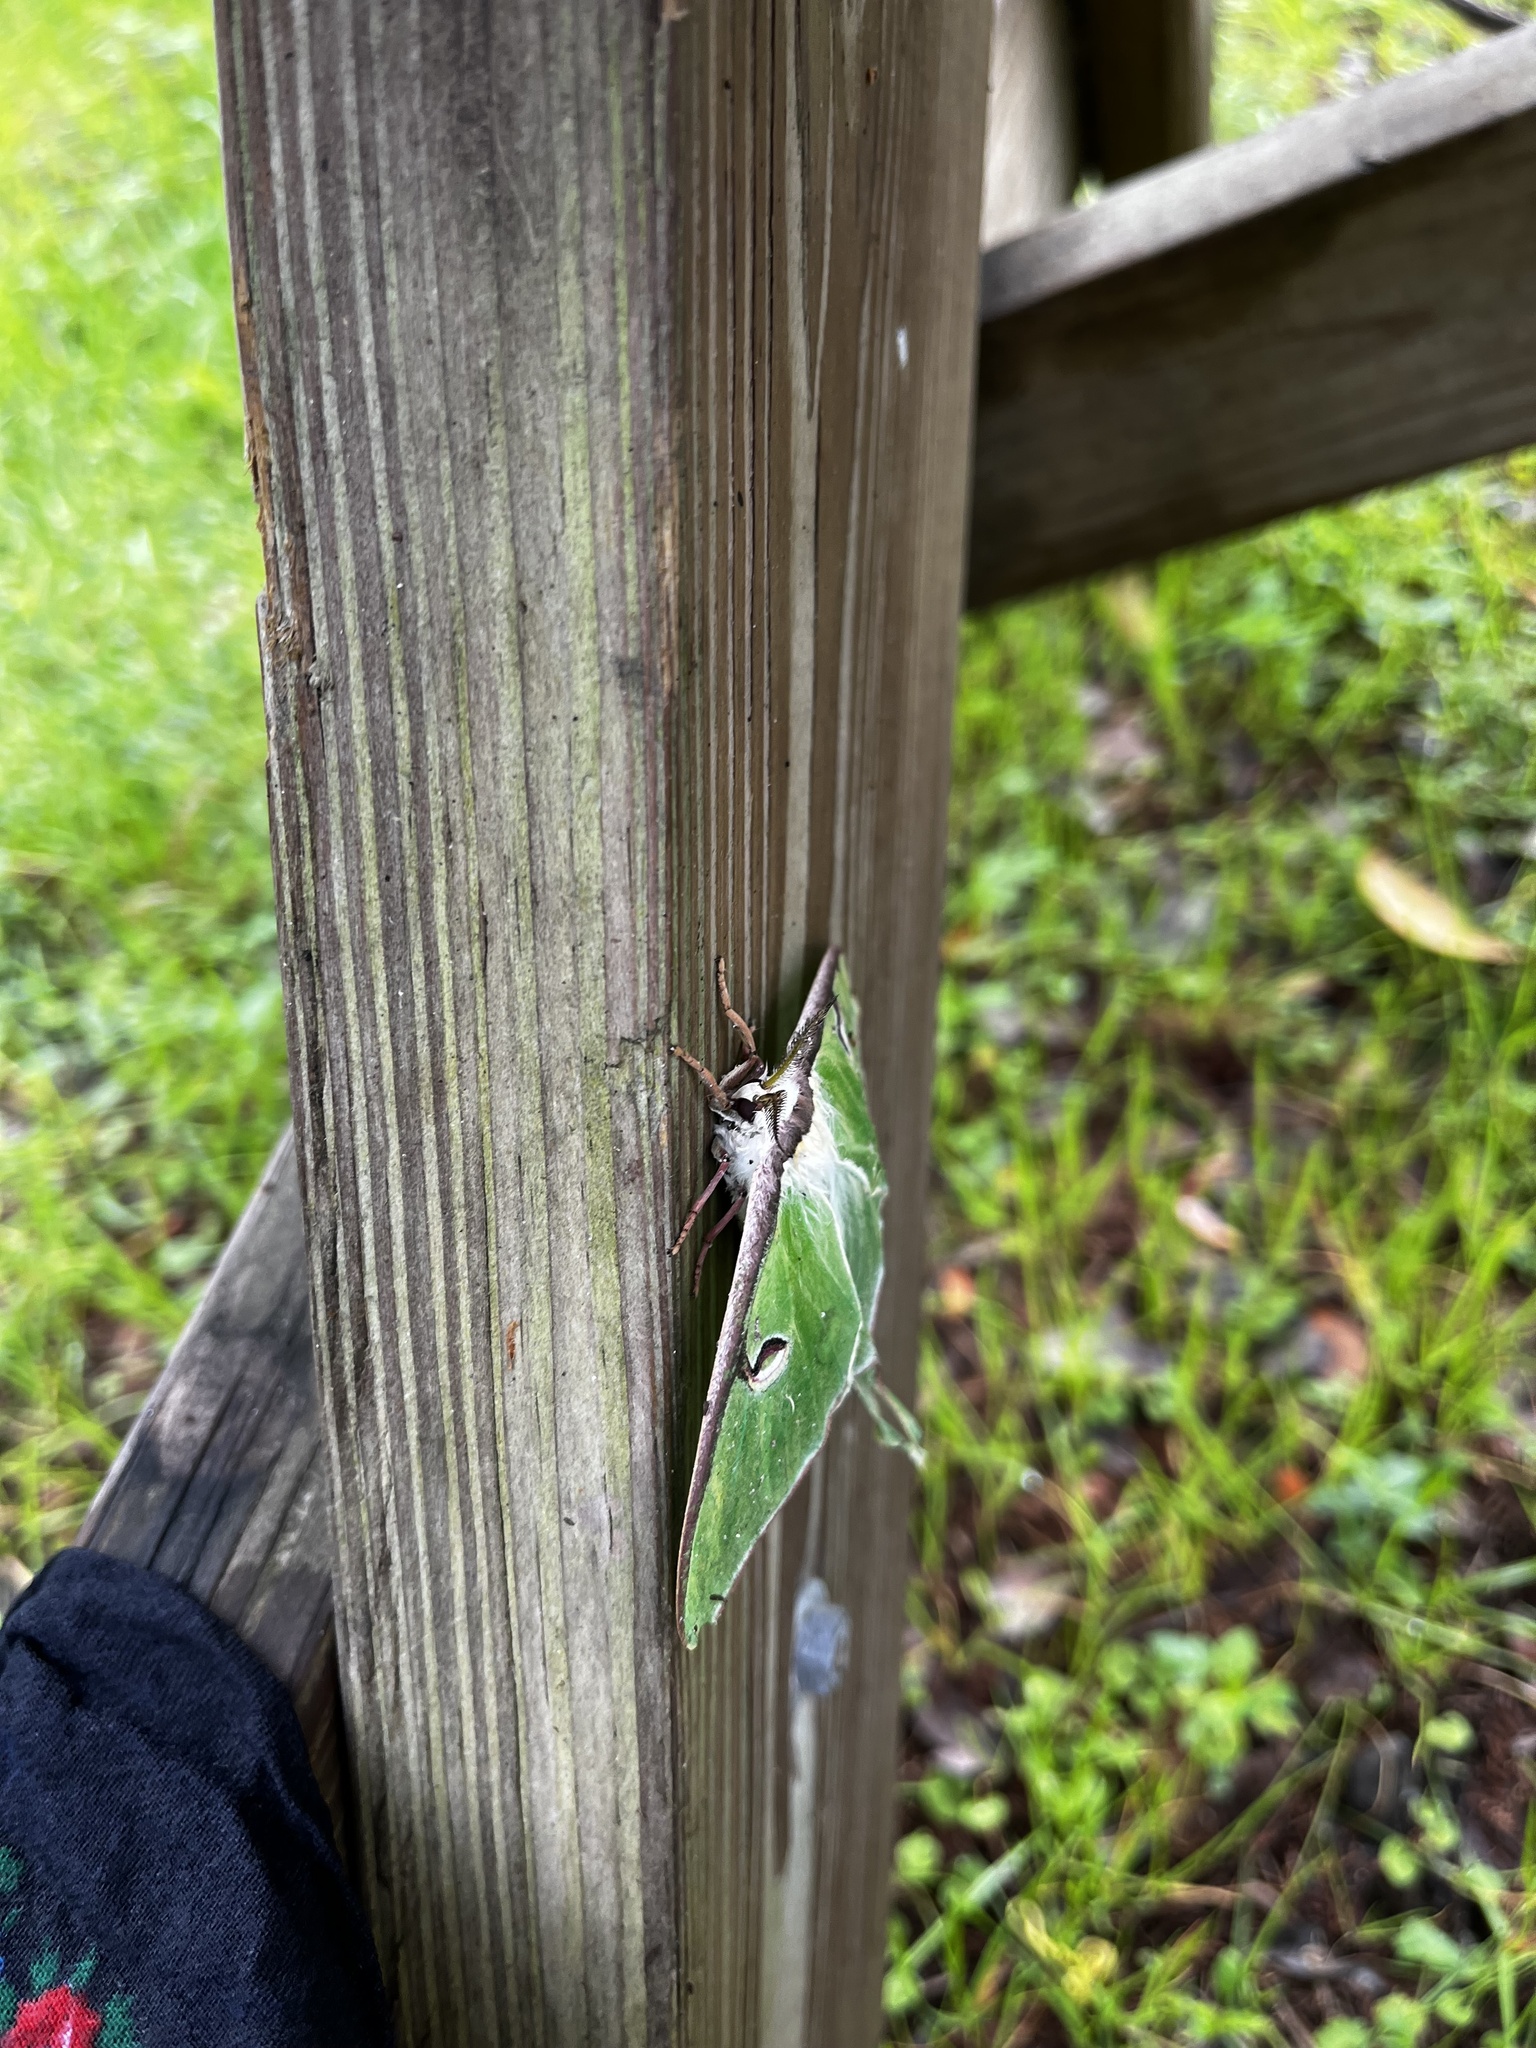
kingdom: Animalia
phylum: Arthropoda
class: Insecta
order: Lepidoptera
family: Saturniidae
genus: Actias
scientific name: Actias luna
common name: Luna moth
